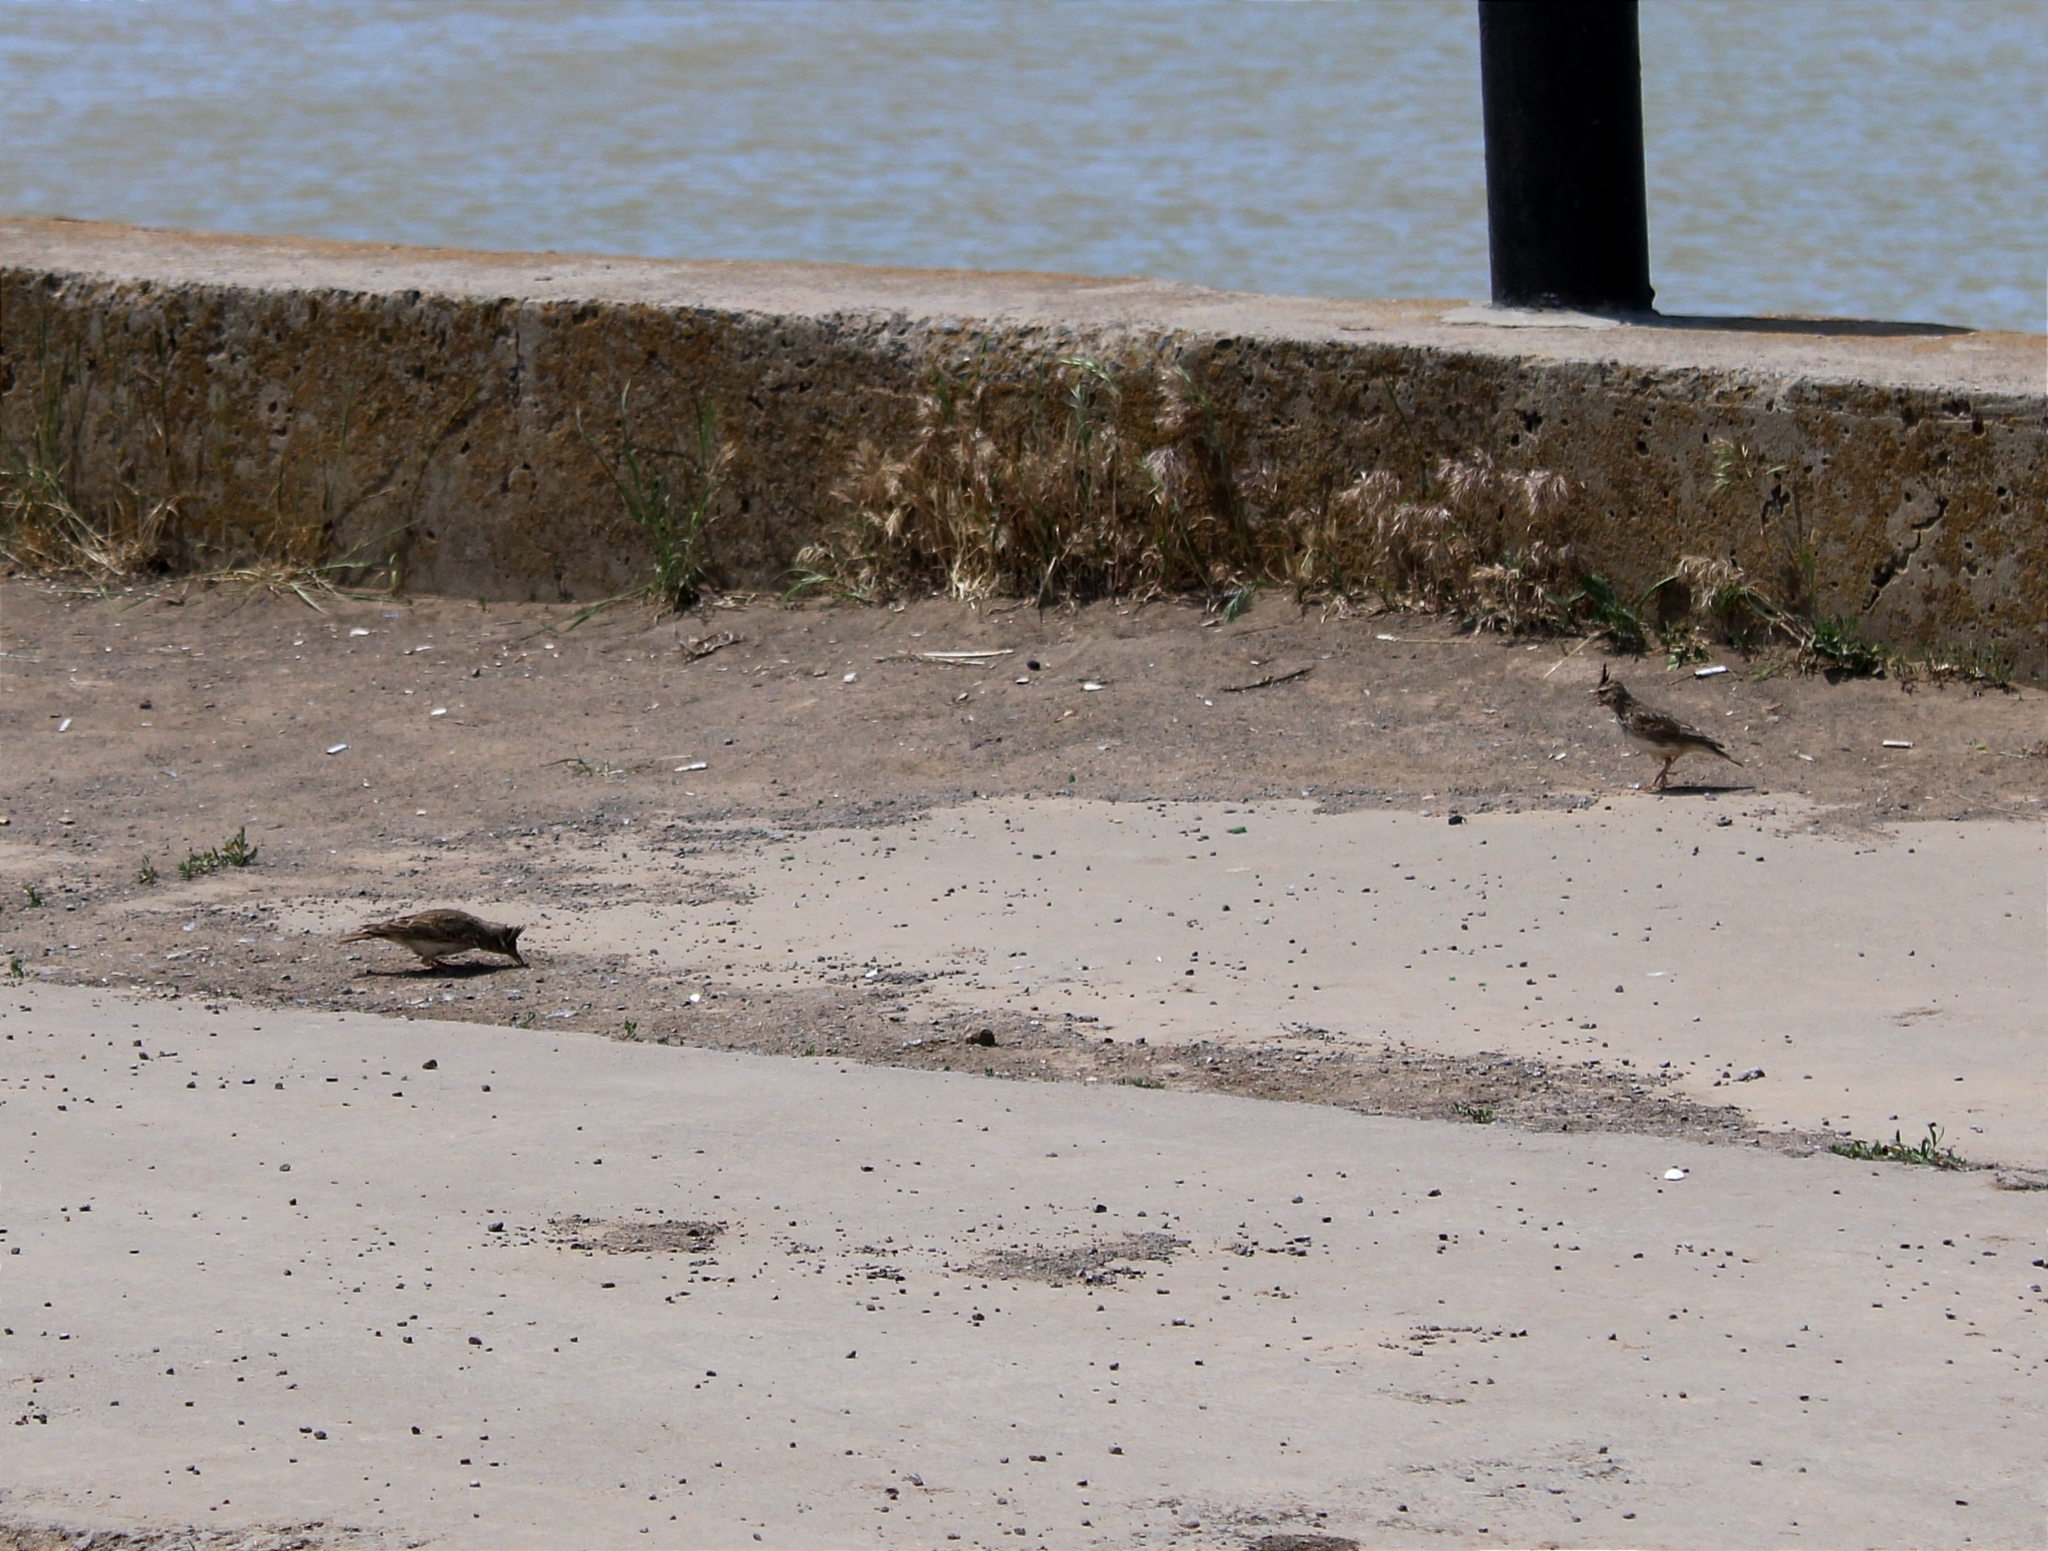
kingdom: Animalia
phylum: Chordata
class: Aves
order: Passeriformes
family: Alaudidae
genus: Galerida
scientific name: Galerida cristata
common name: Crested lark
